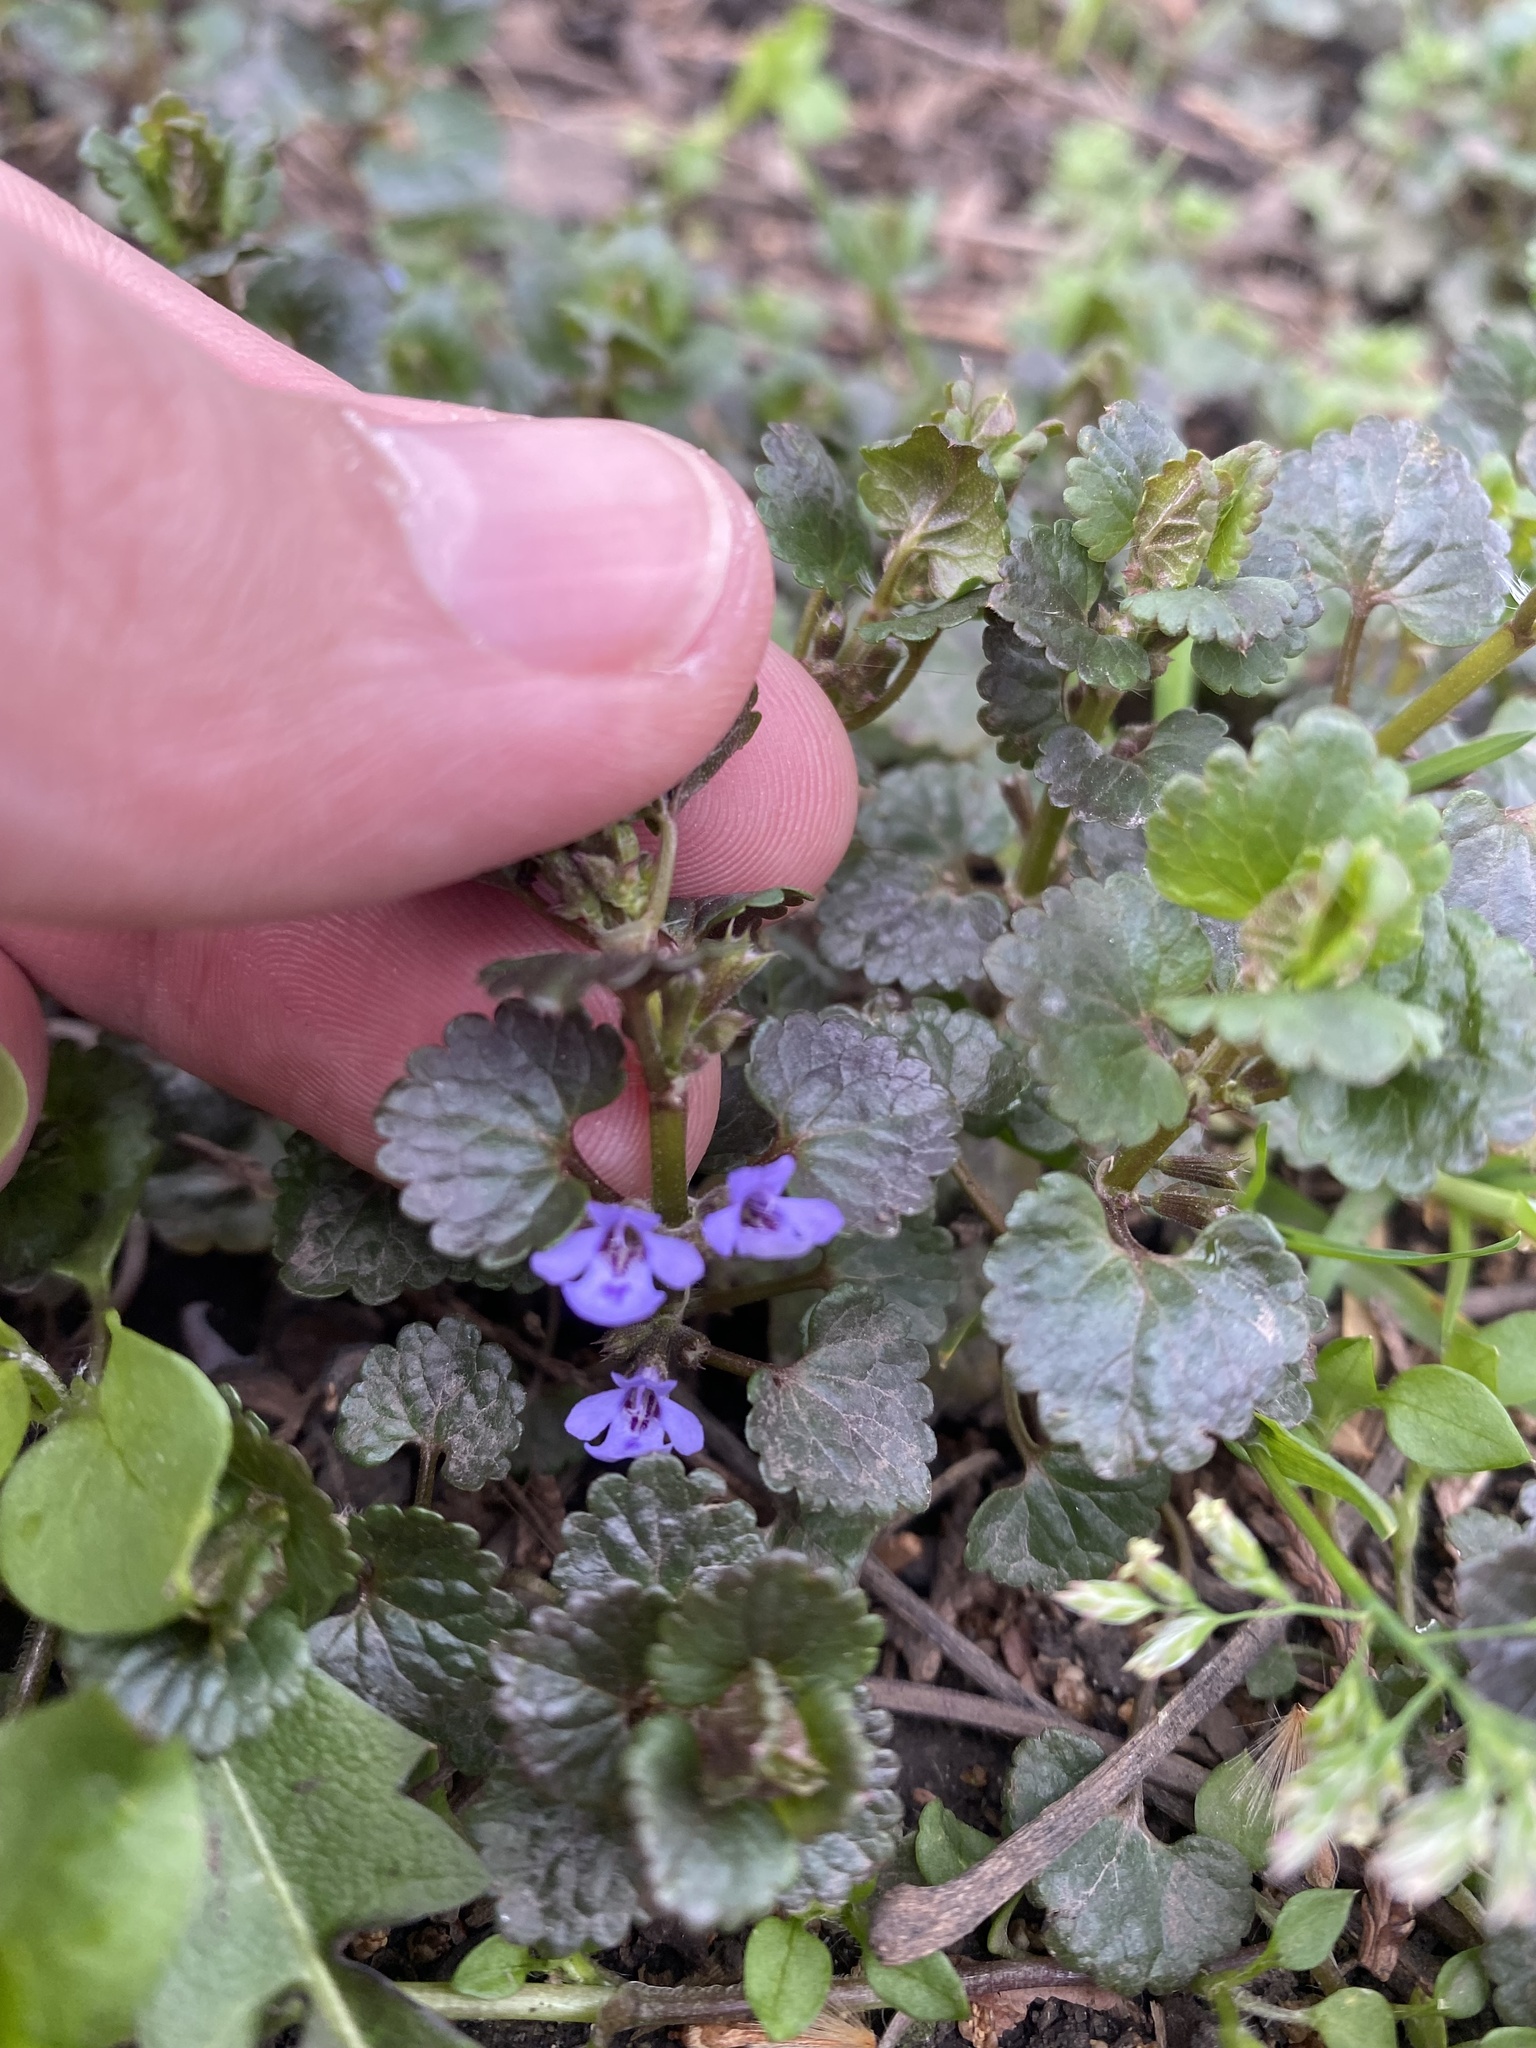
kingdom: Plantae
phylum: Tracheophyta
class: Magnoliopsida
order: Lamiales
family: Lamiaceae
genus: Glechoma
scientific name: Glechoma hederacea
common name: Ground ivy
